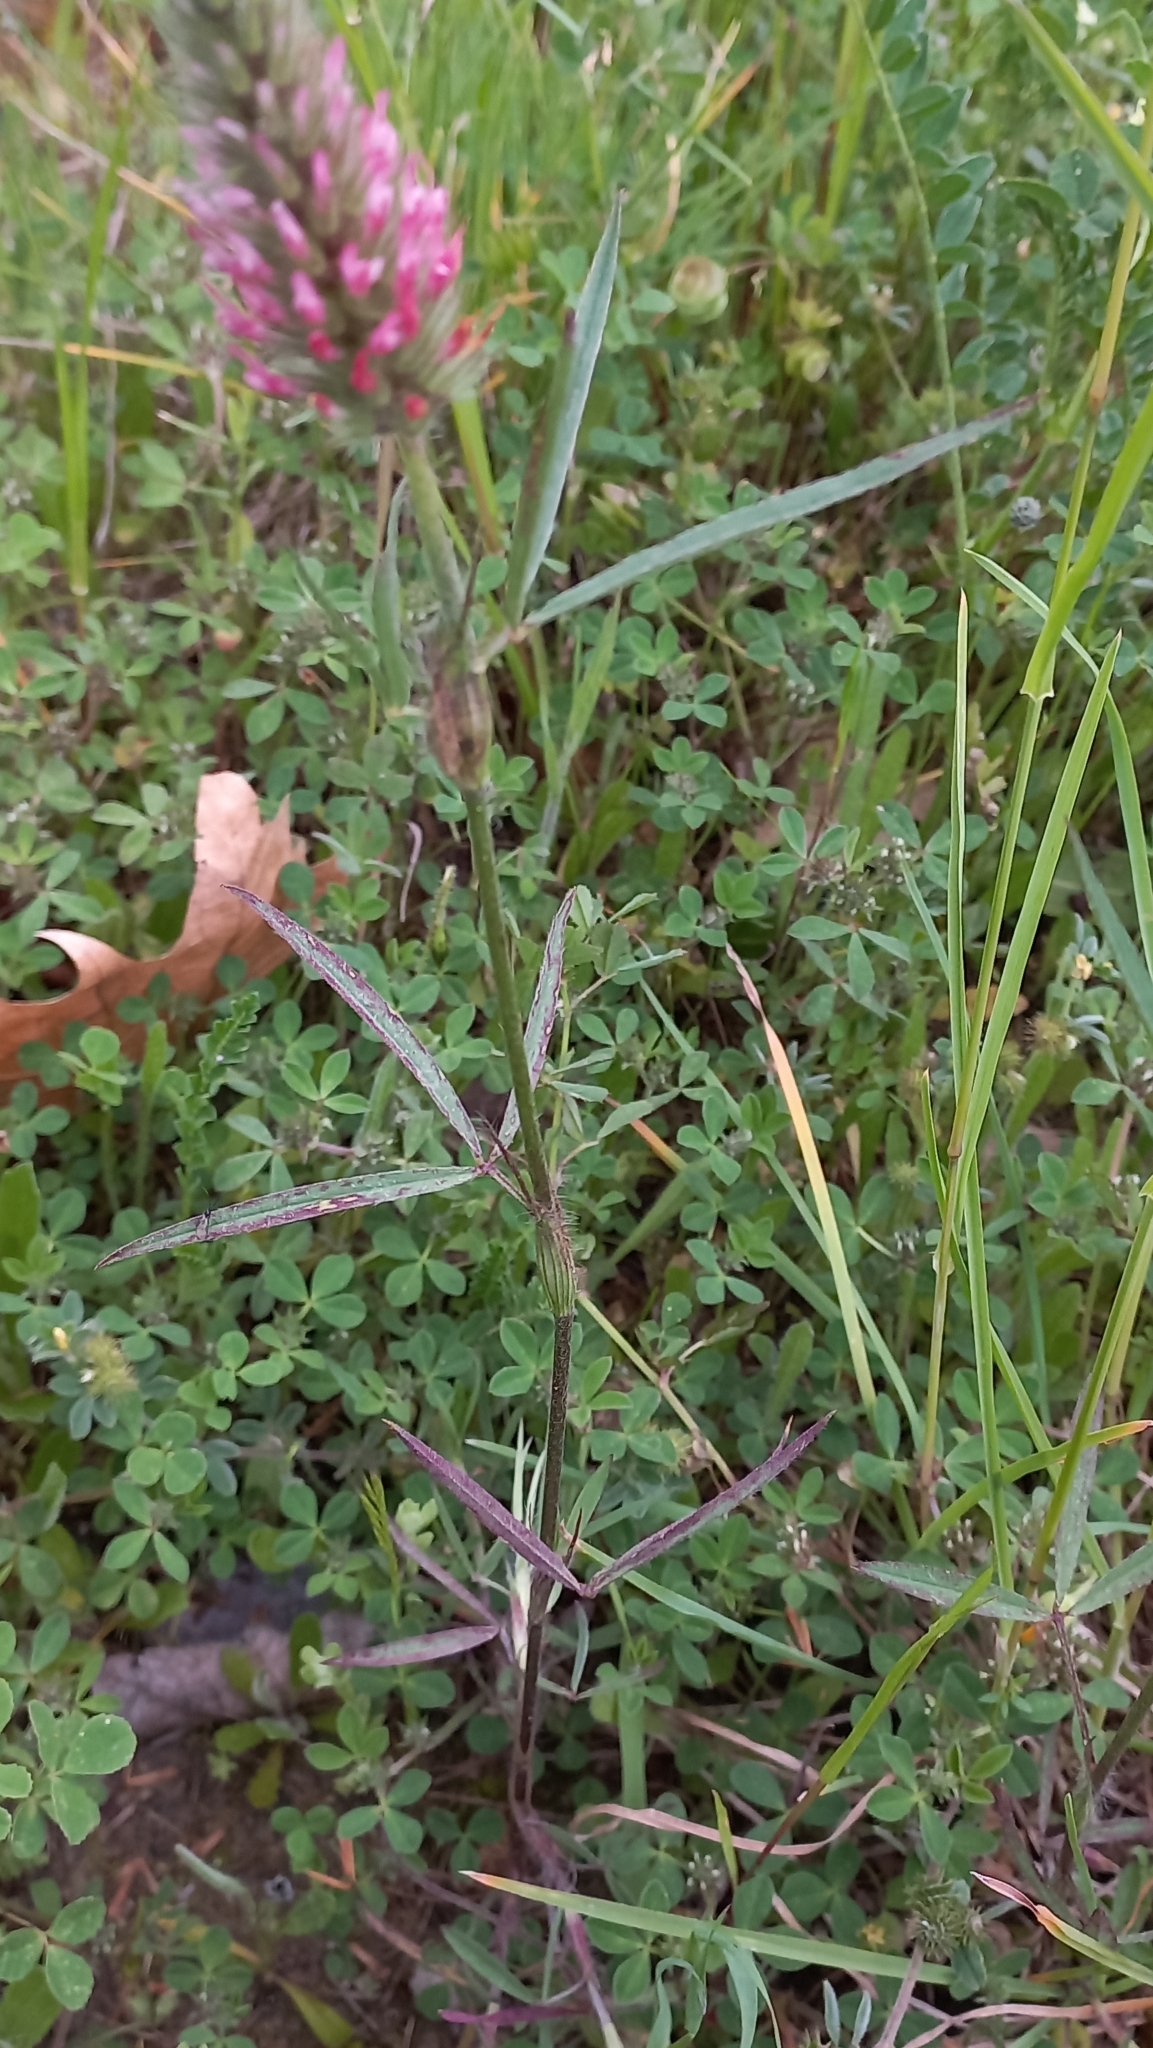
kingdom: Plantae
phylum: Tracheophyta
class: Magnoliopsida
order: Fabales
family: Fabaceae
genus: Trifolium
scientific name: Trifolium angustifolium
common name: Narrow clover
